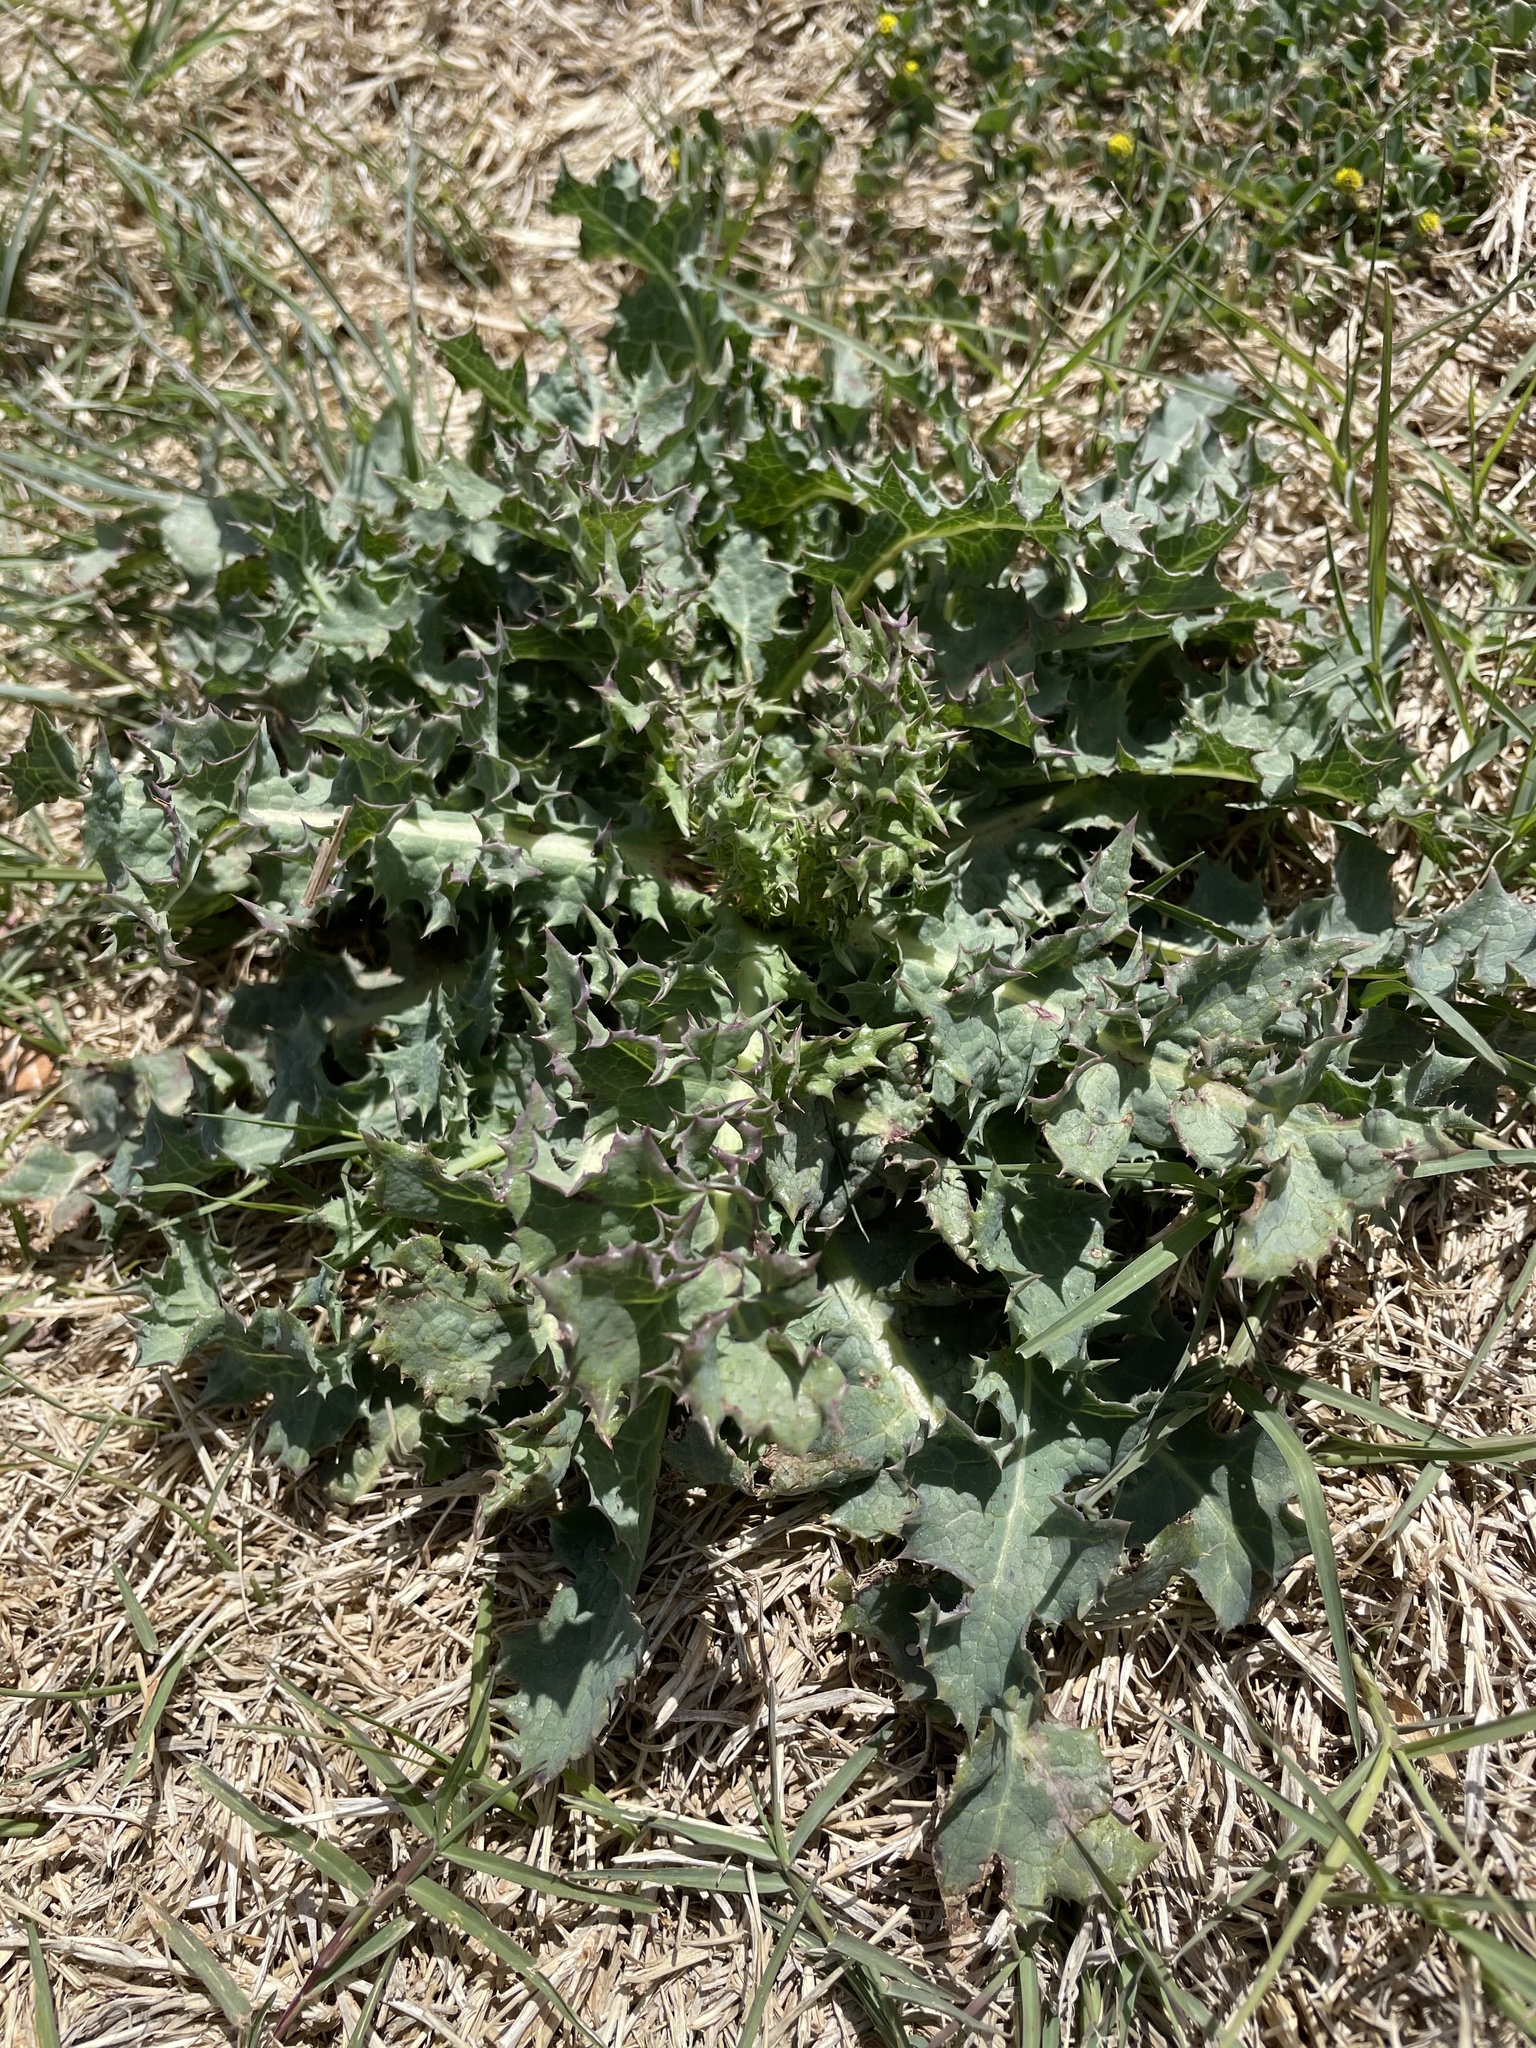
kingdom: Plantae
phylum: Tracheophyta
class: Magnoliopsida
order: Asterales
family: Asteraceae
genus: Sonchus
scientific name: Sonchus asper
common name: Prickly sow-thistle
